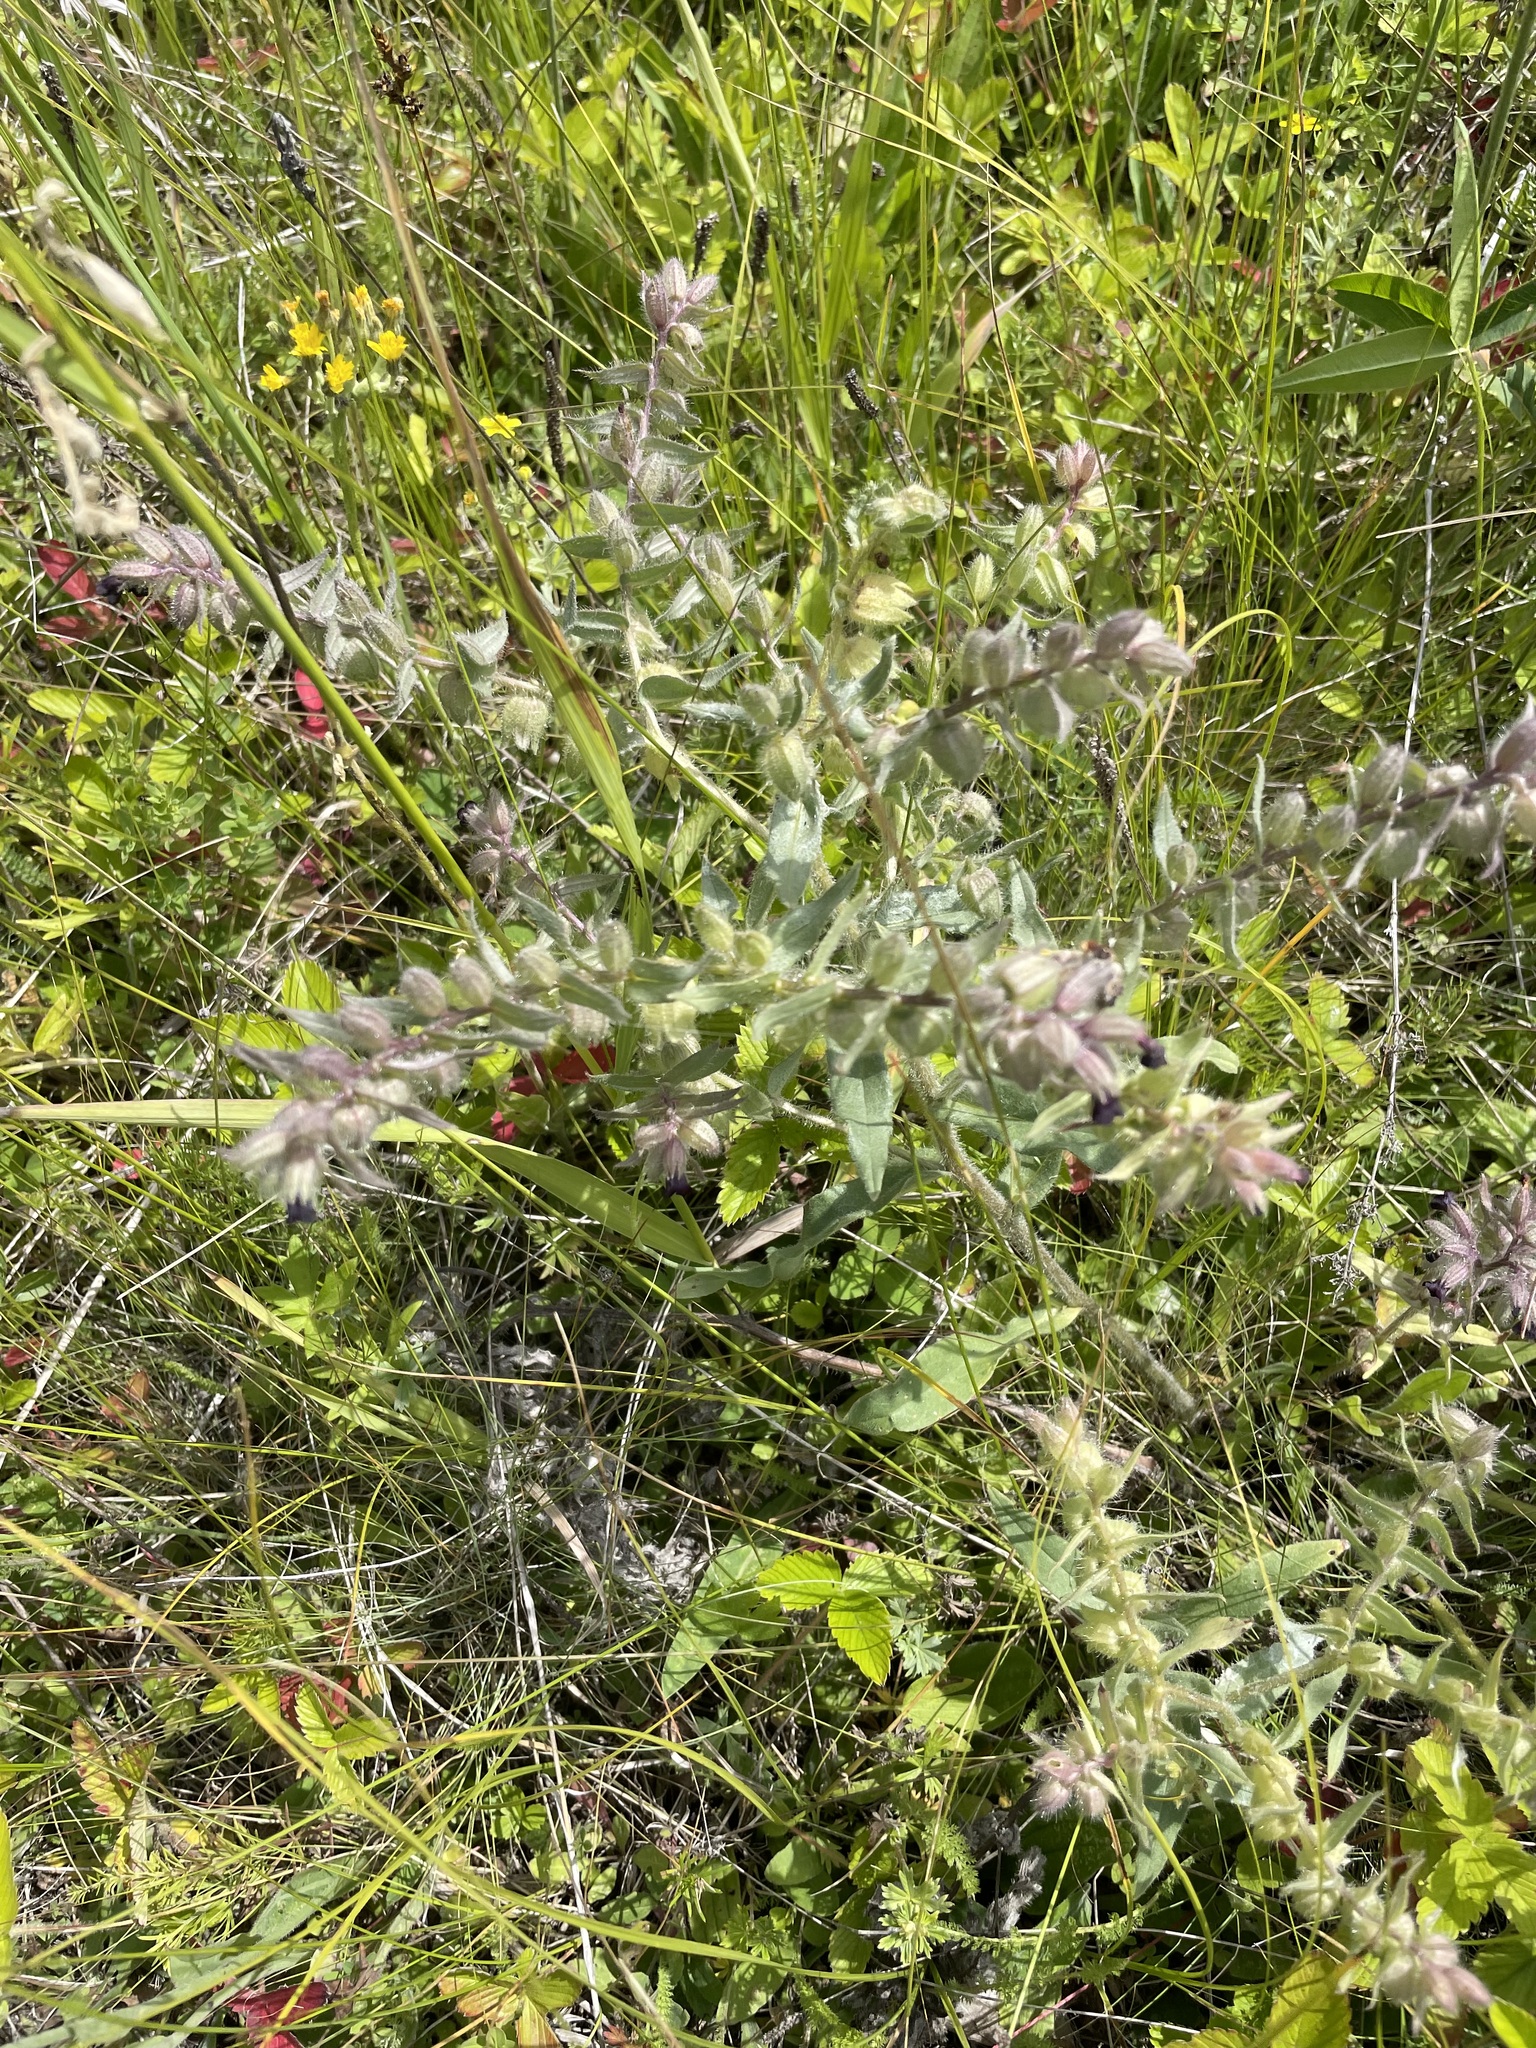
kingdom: Plantae
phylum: Tracheophyta
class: Magnoliopsida
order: Boraginales
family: Boraginaceae
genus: Nonea
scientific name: Nonea pulla
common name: Brown nonea
